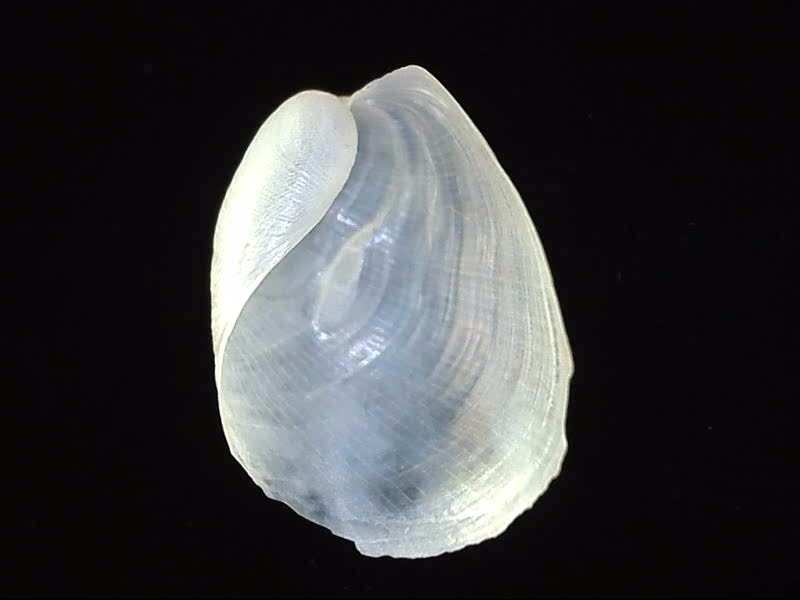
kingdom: Animalia
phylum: Mollusca
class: Gastropoda
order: Cephalaspidea
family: Philinidae
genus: Philine
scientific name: Philine auriformis
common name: Sea snail
